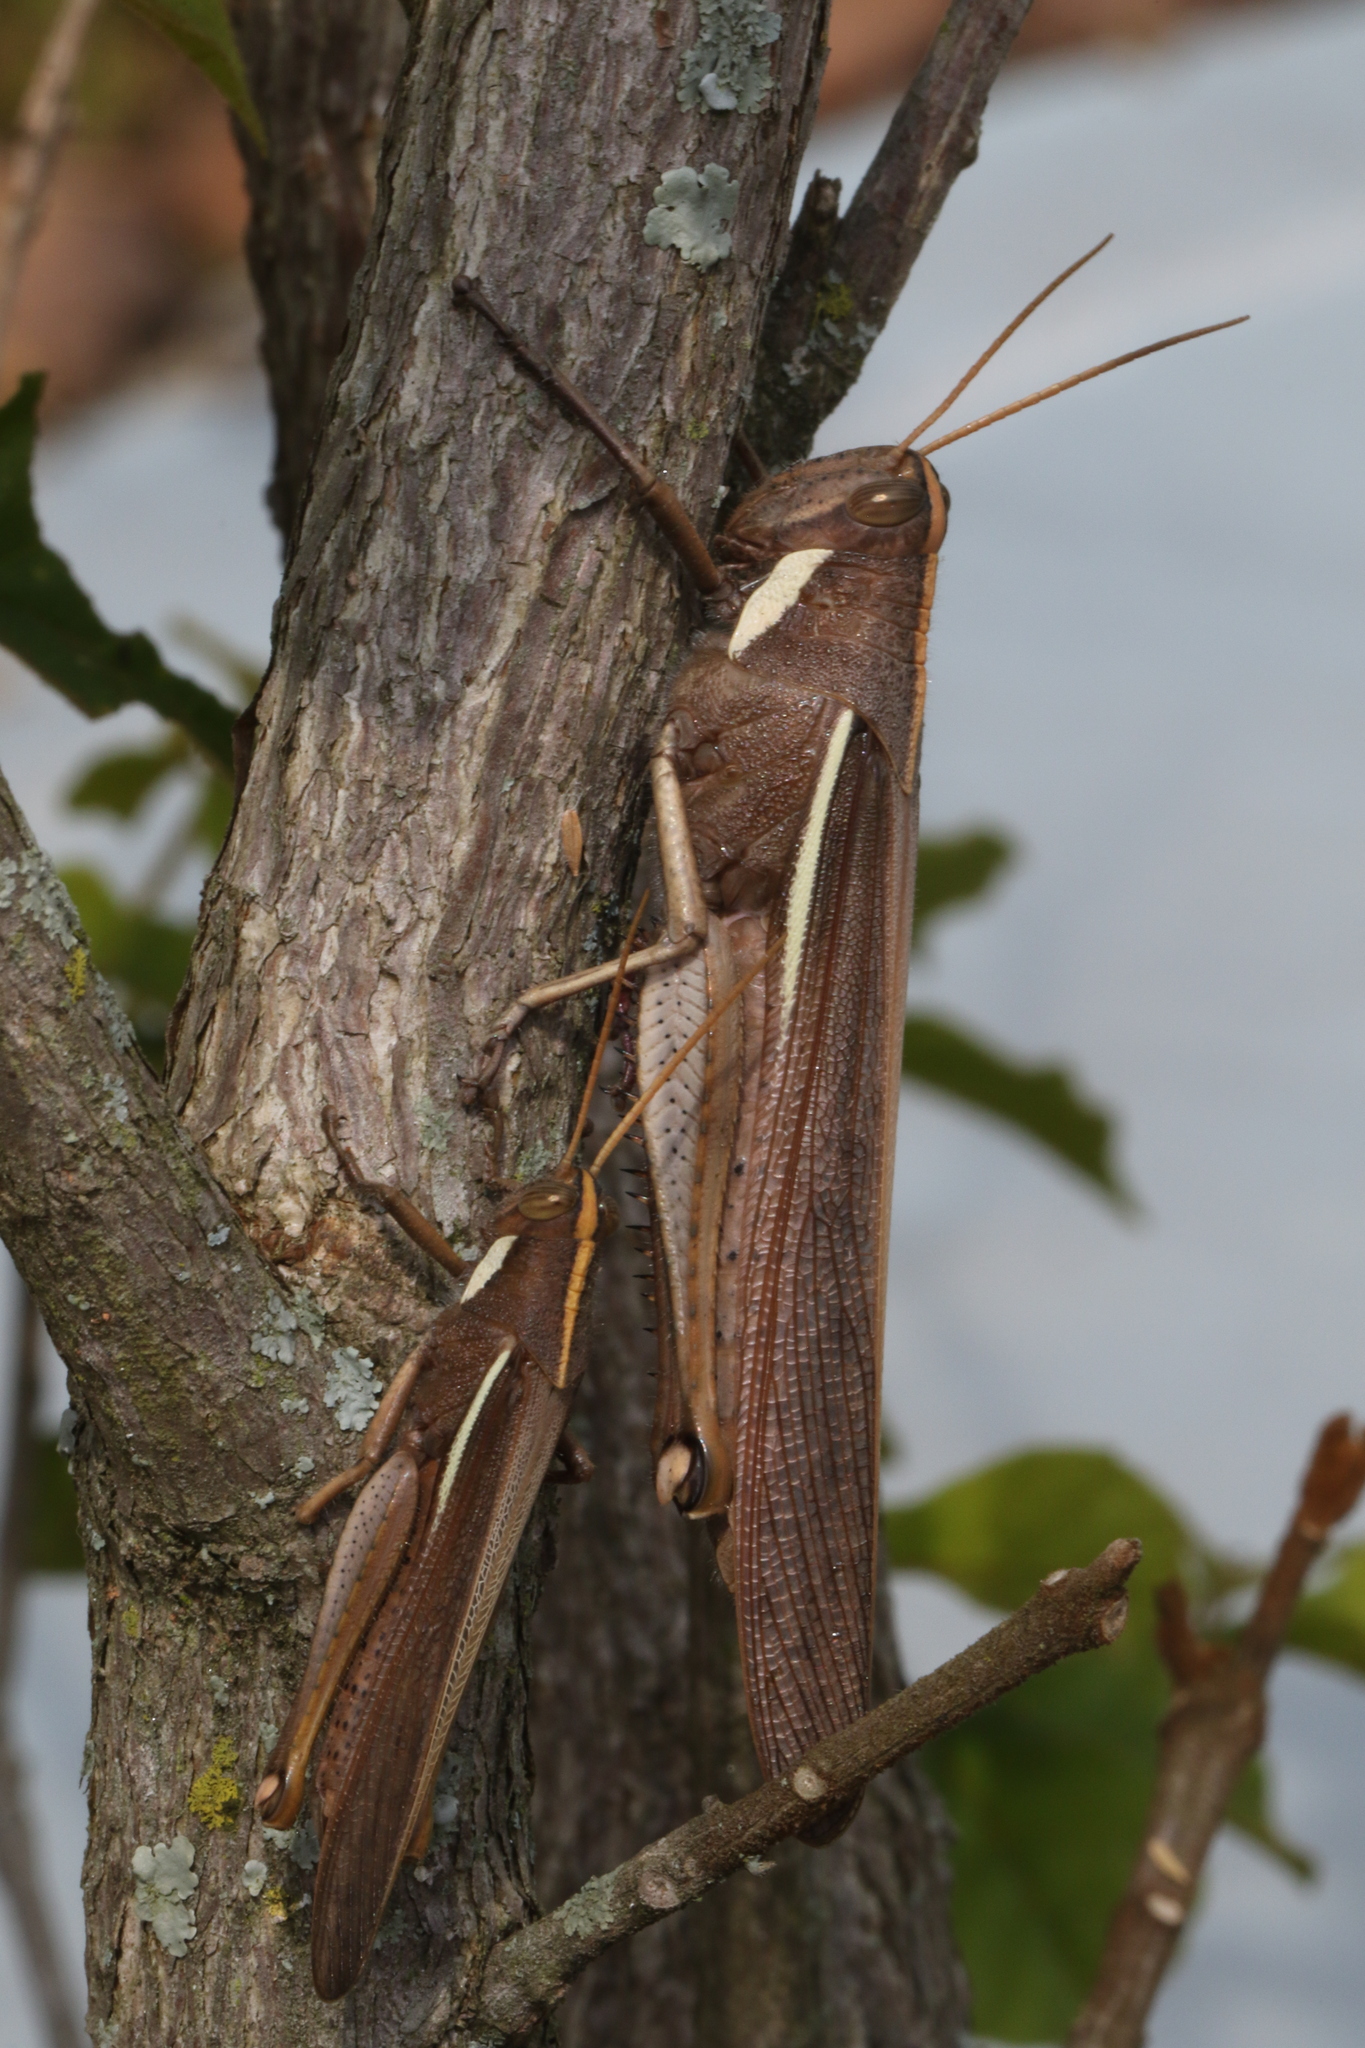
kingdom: Animalia
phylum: Arthropoda
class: Insecta
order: Orthoptera
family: Acrididae
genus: Schistocerca
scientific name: Schistocerca flavofasciata
